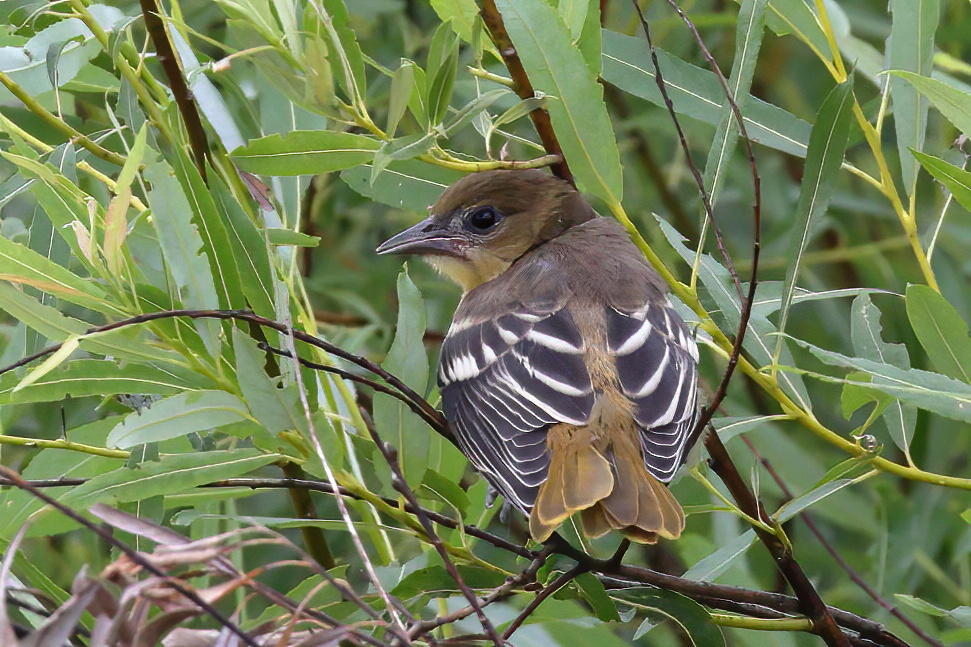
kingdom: Animalia
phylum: Chordata
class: Aves
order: Passeriformes
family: Icteridae
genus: Icterus
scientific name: Icterus galbula
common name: Baltimore oriole
